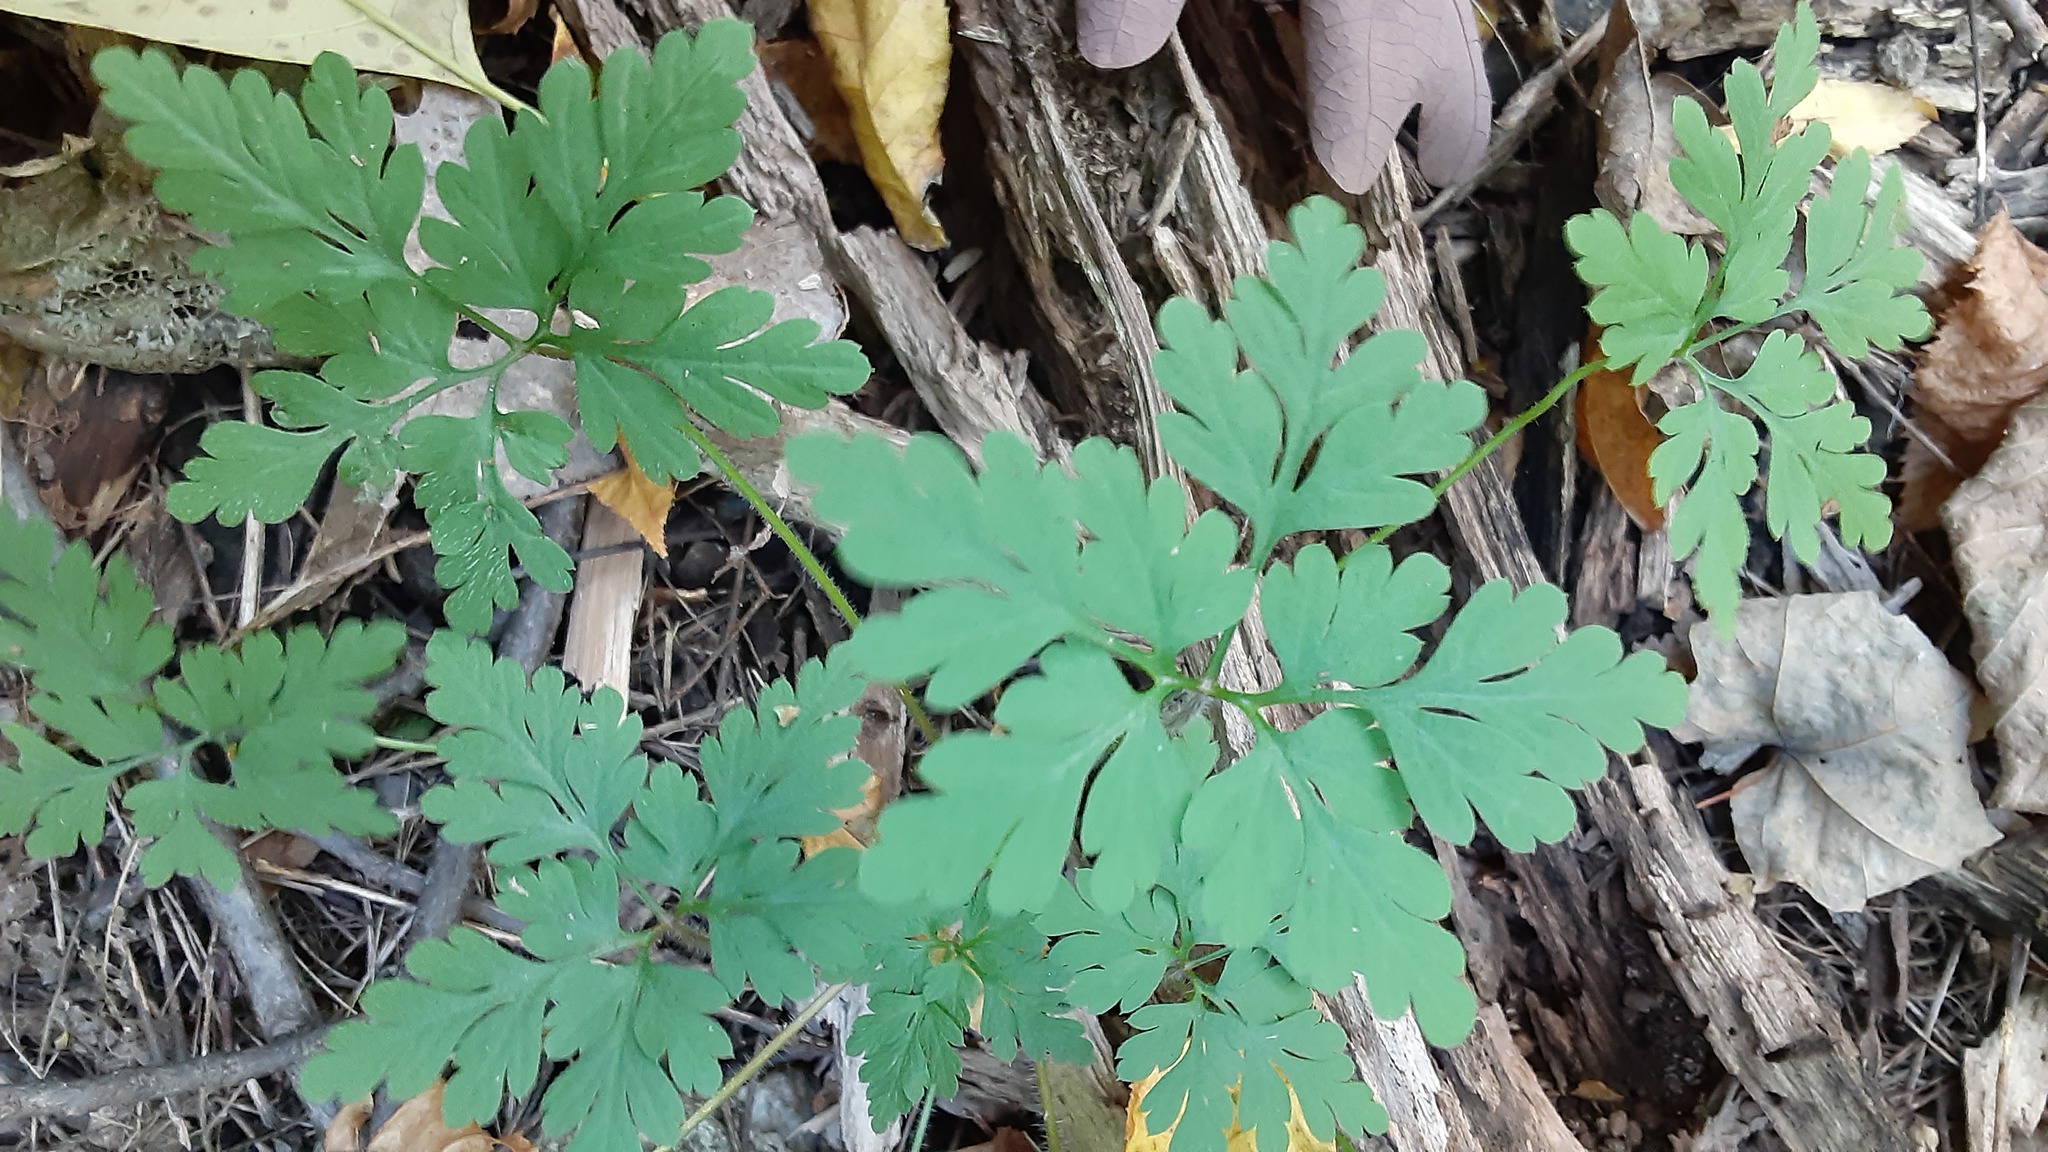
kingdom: Plantae
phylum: Tracheophyta
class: Magnoliopsida
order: Geraniales
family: Geraniaceae
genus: Geranium
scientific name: Geranium robertianum
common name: Herb-robert
